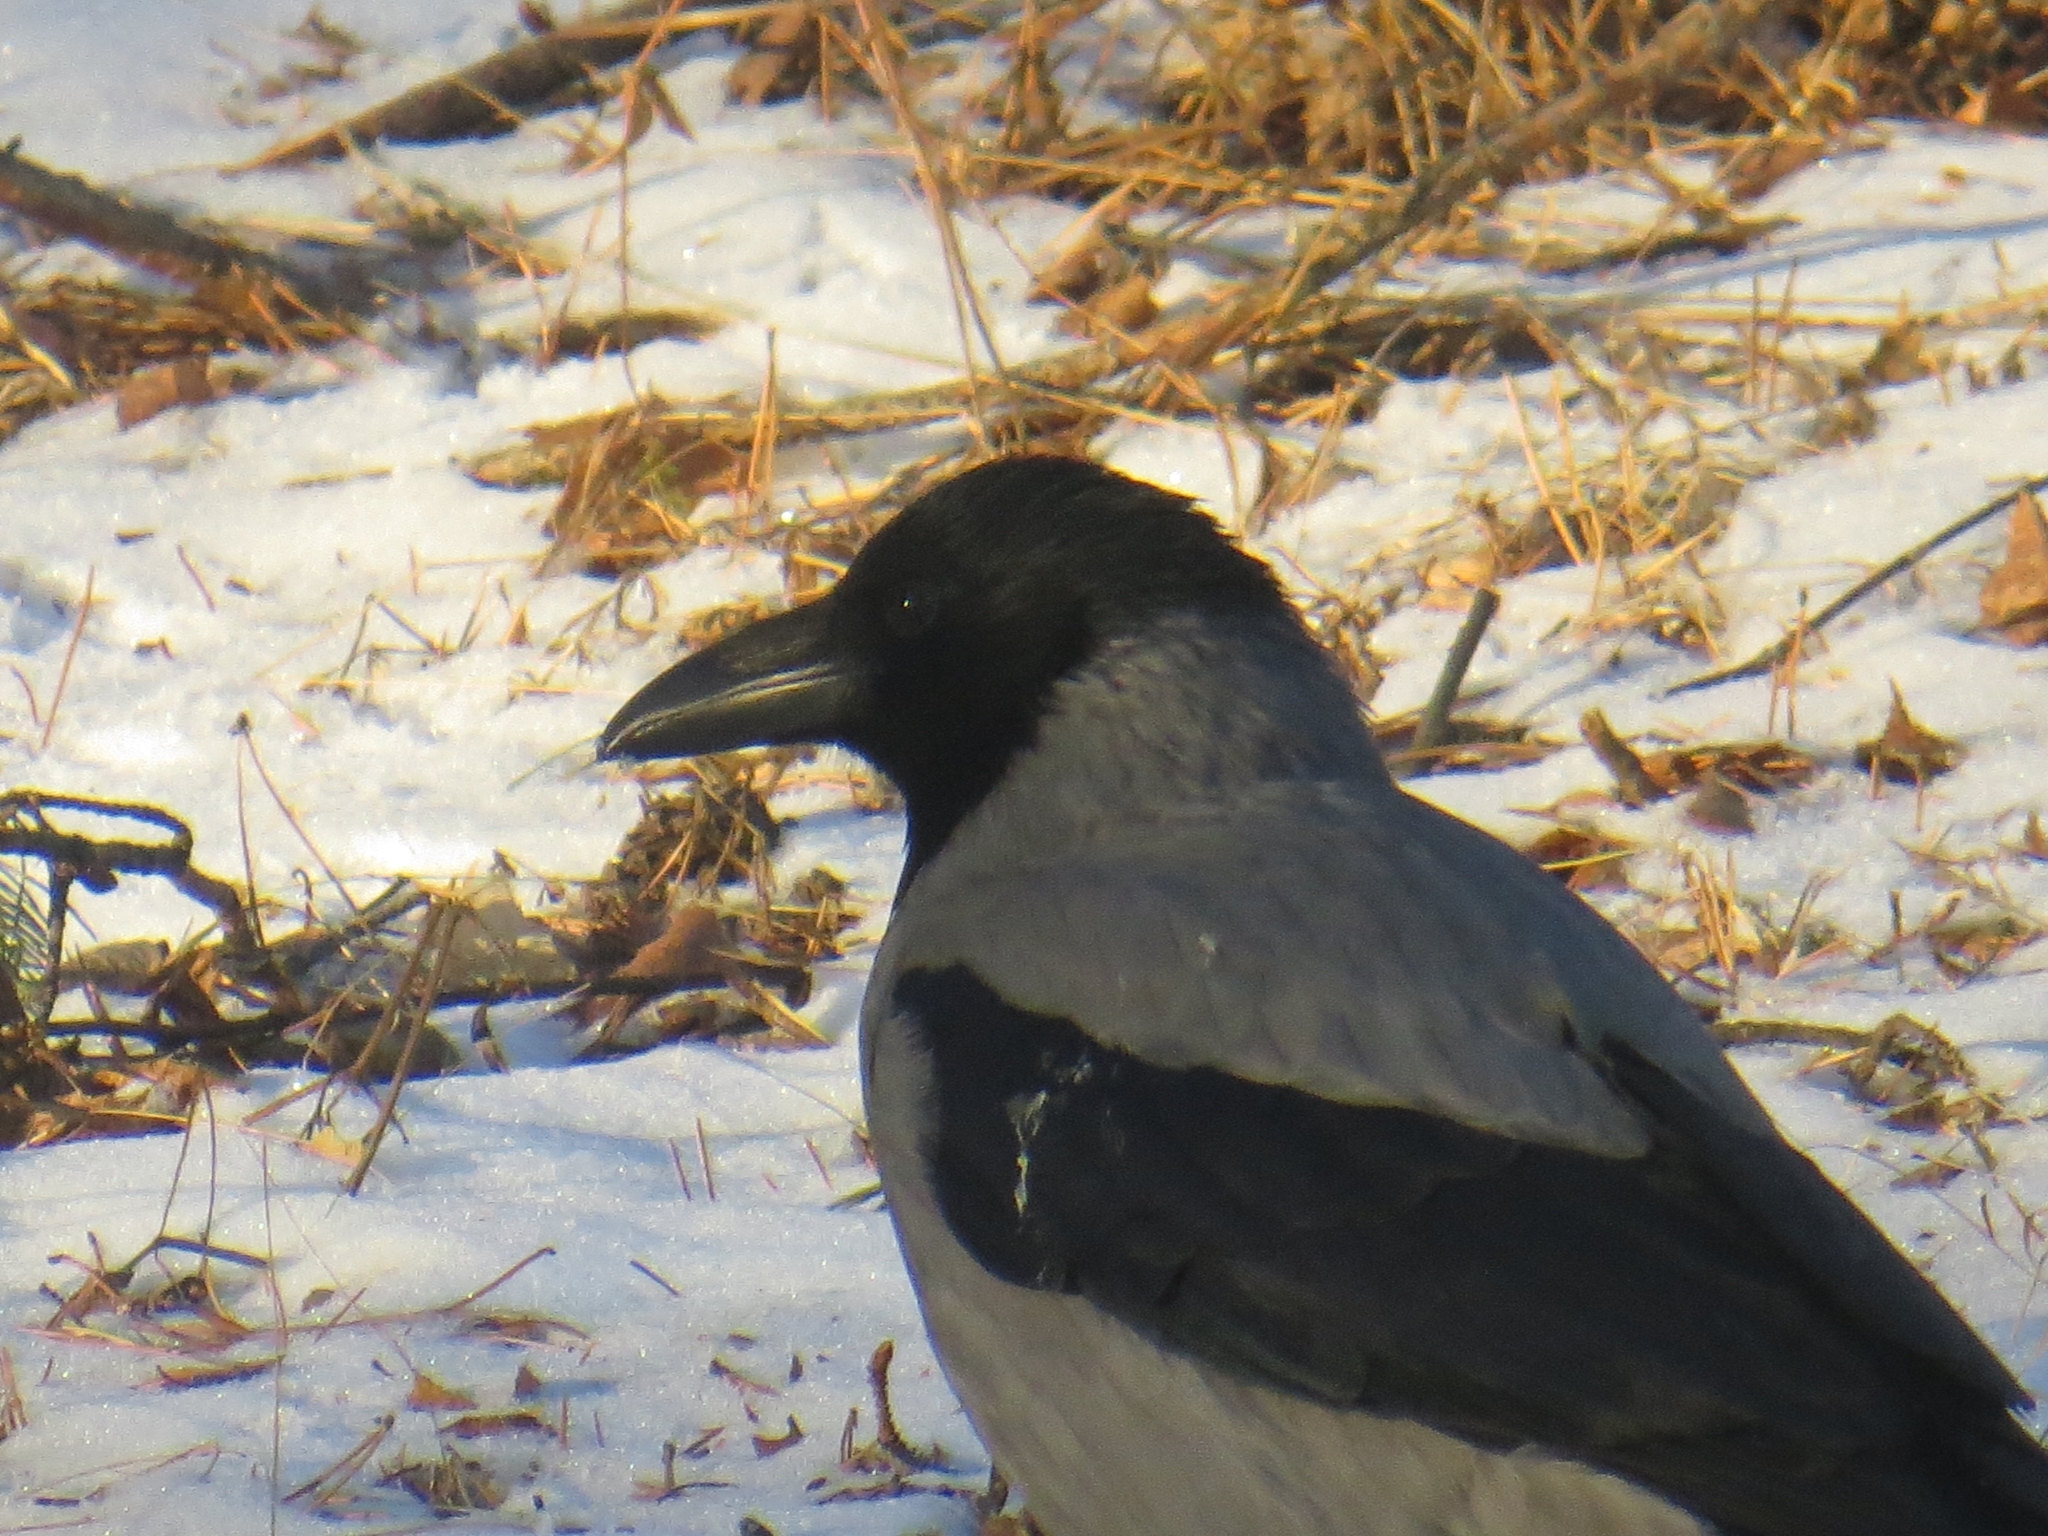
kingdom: Animalia
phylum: Chordata
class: Aves
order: Passeriformes
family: Corvidae
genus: Corvus
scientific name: Corvus cornix
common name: Hooded crow
